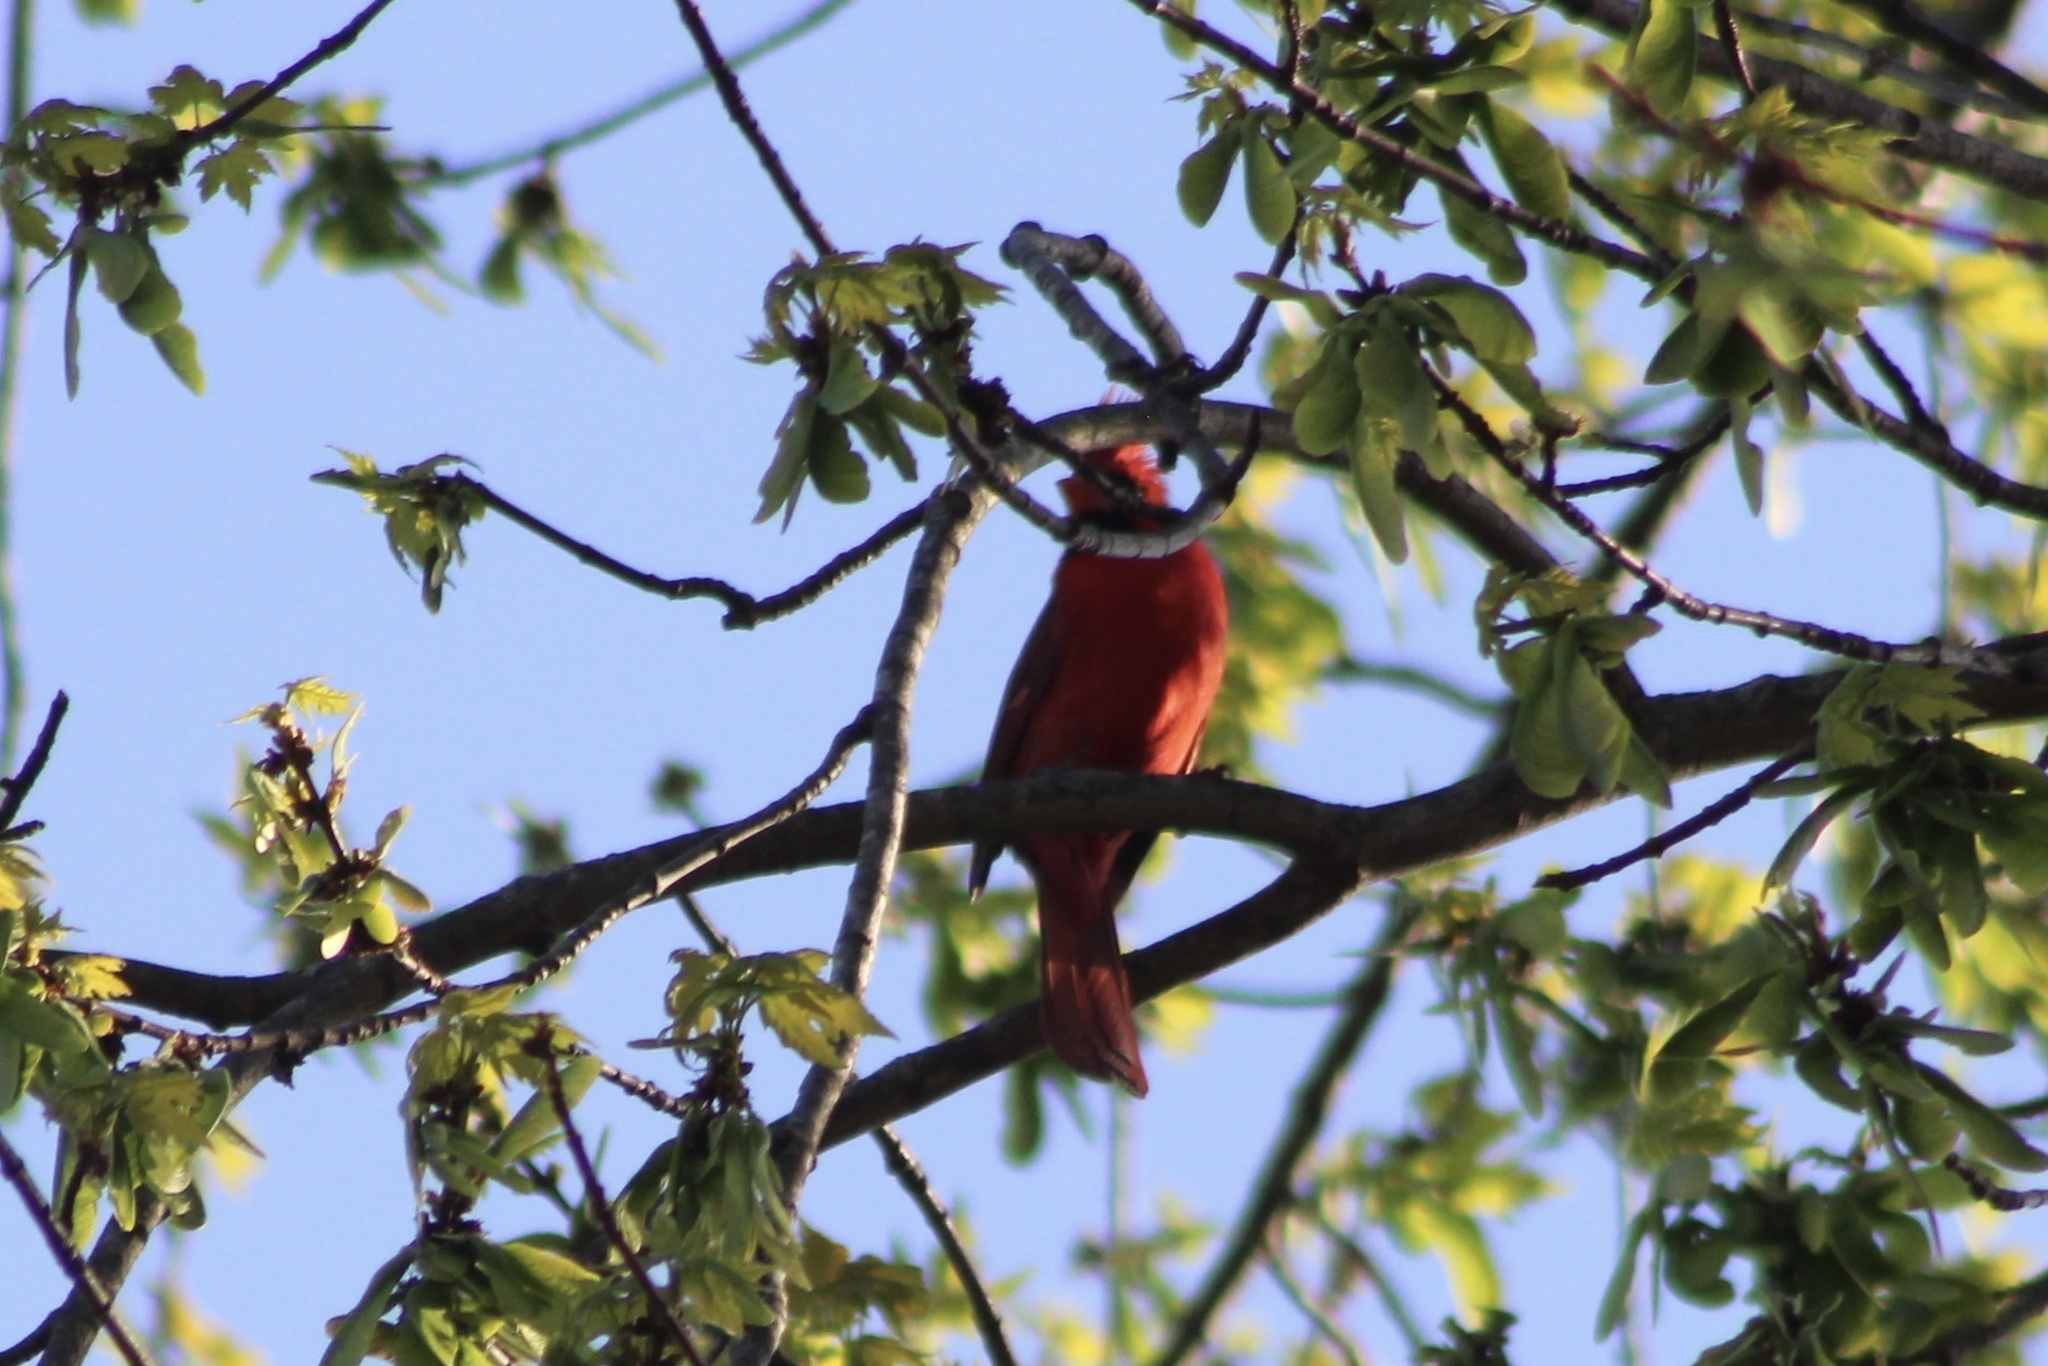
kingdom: Animalia
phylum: Chordata
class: Aves
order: Passeriformes
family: Cardinalidae
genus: Cardinalis
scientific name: Cardinalis cardinalis
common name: Northern cardinal
